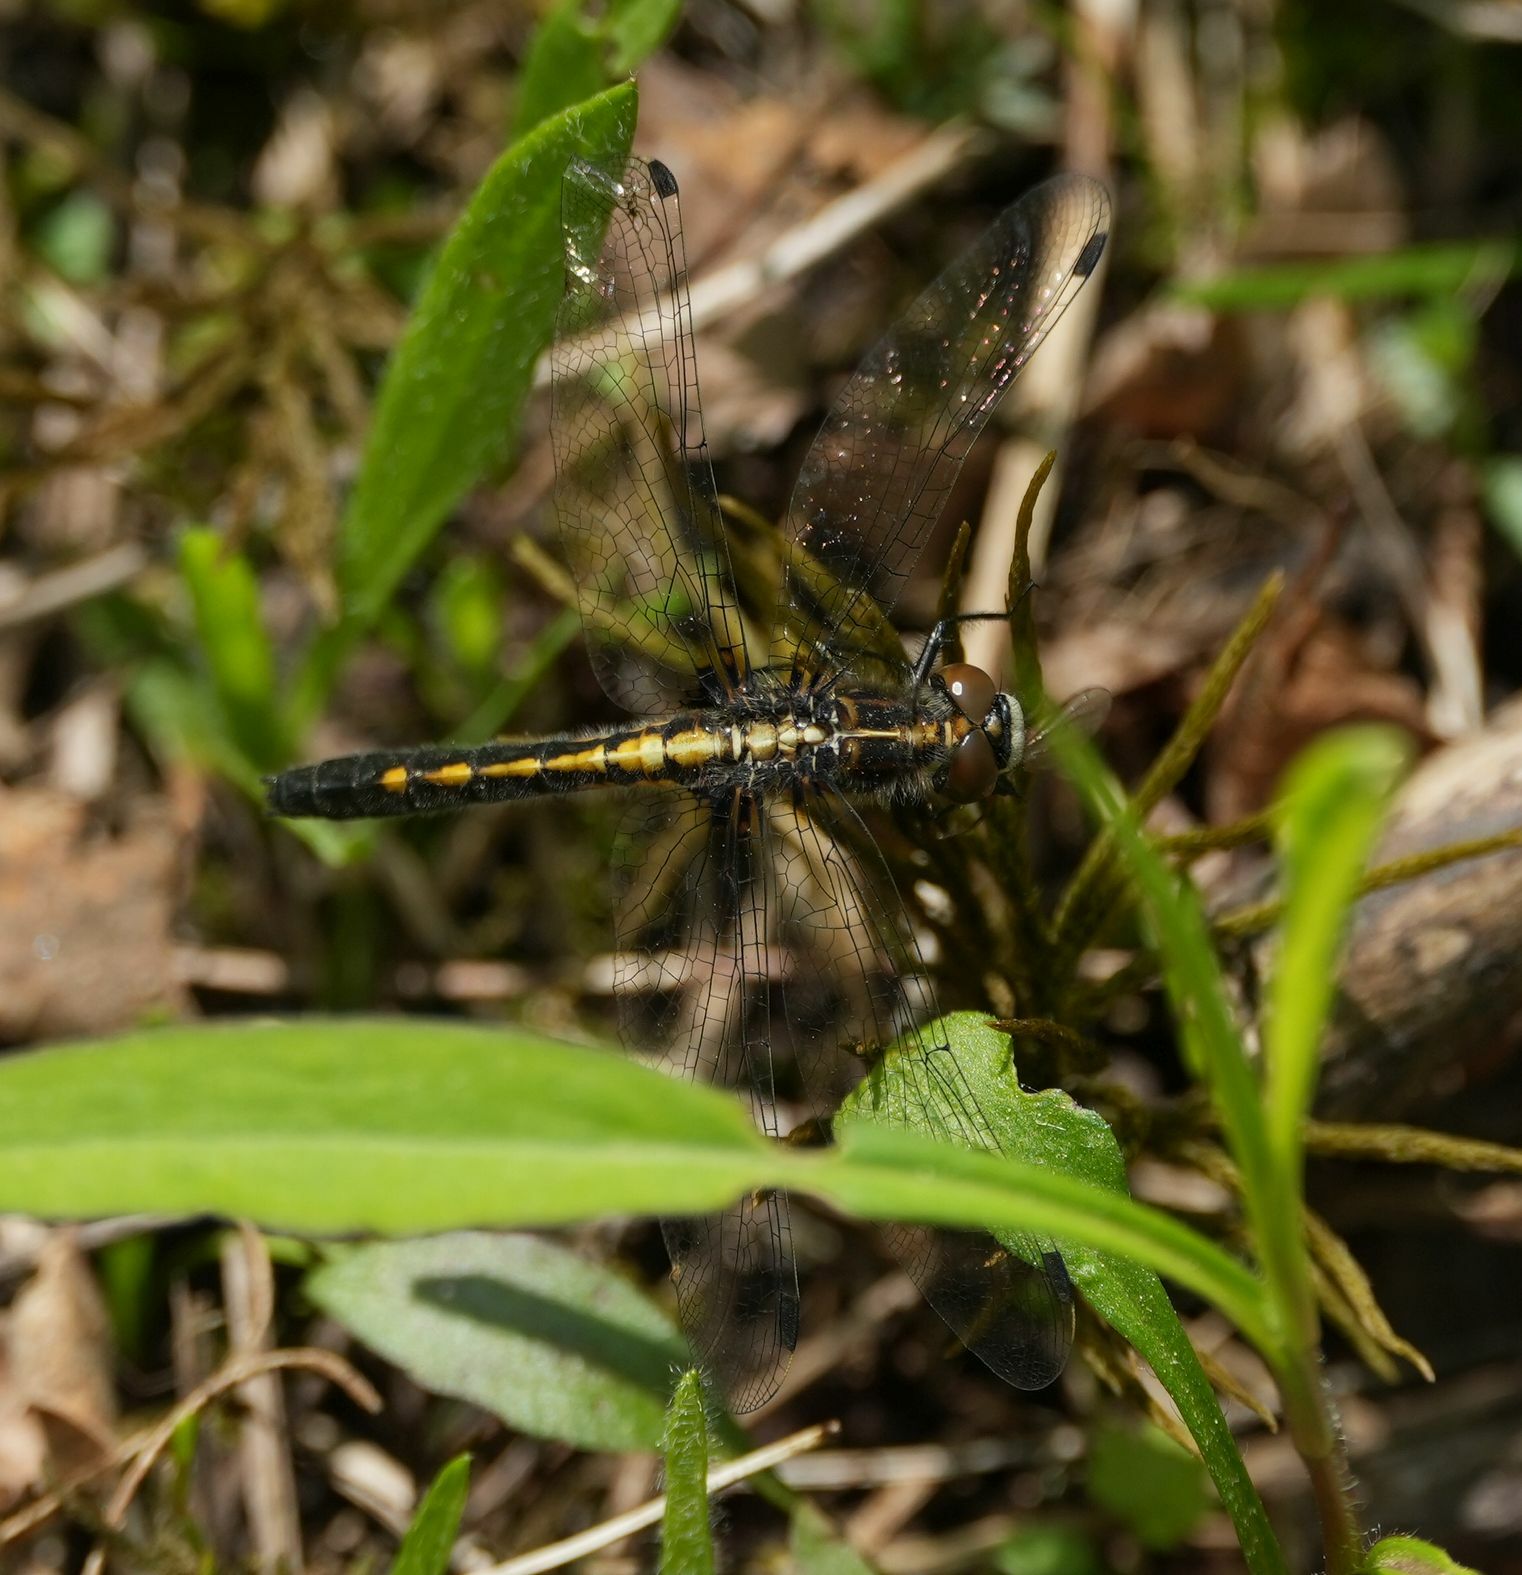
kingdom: Animalia
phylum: Arthropoda
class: Insecta
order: Odonata
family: Libellulidae
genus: Leucorrhinia
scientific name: Leucorrhinia intacta
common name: Dot-tailed whiteface
